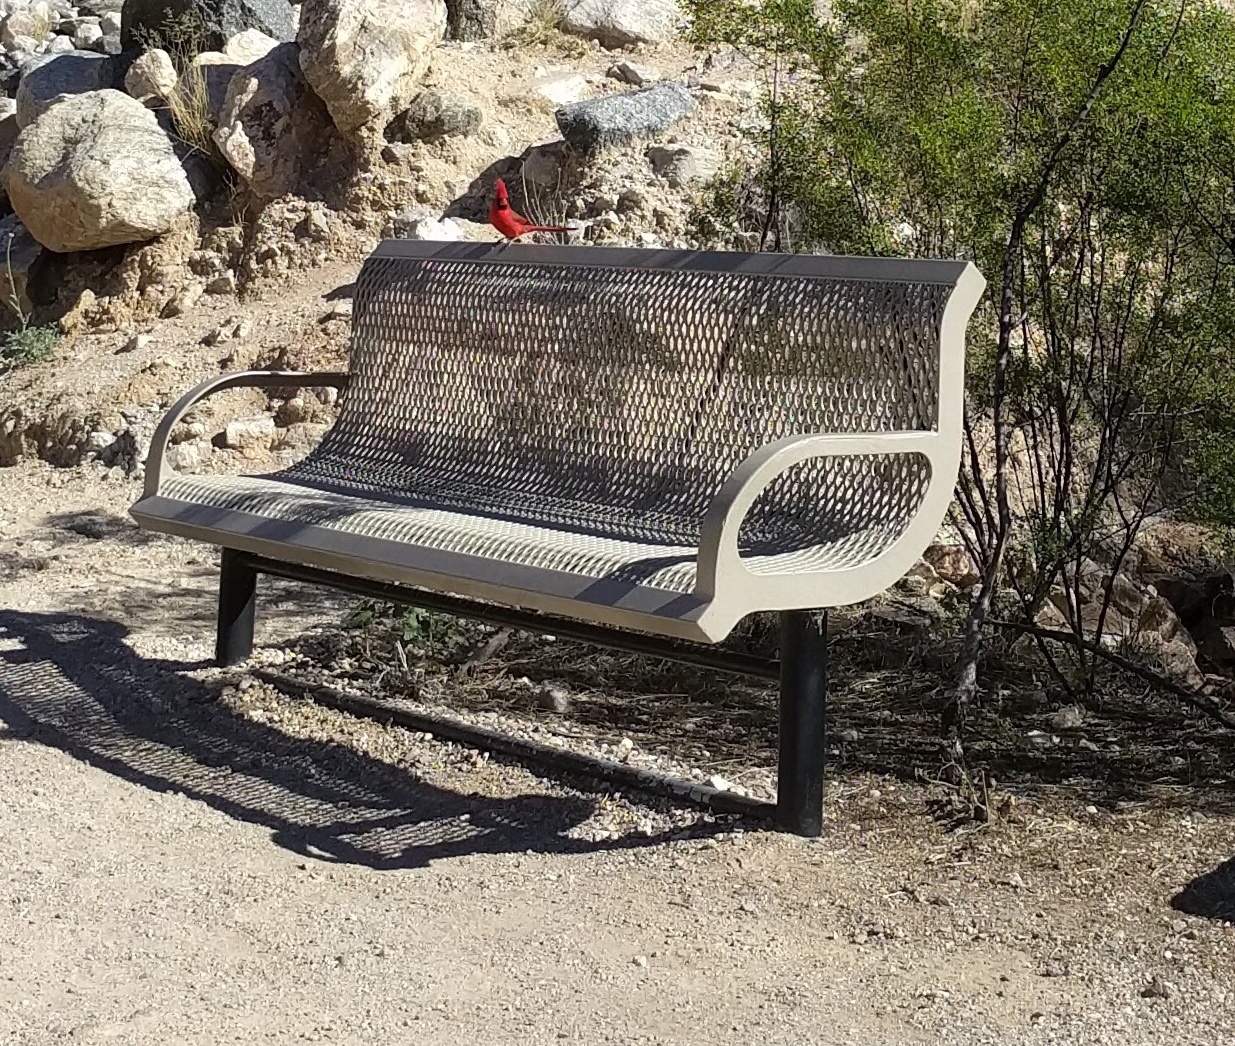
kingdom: Animalia
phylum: Chordata
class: Aves
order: Passeriformes
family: Cardinalidae
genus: Cardinalis
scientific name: Cardinalis cardinalis
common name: Northern cardinal
